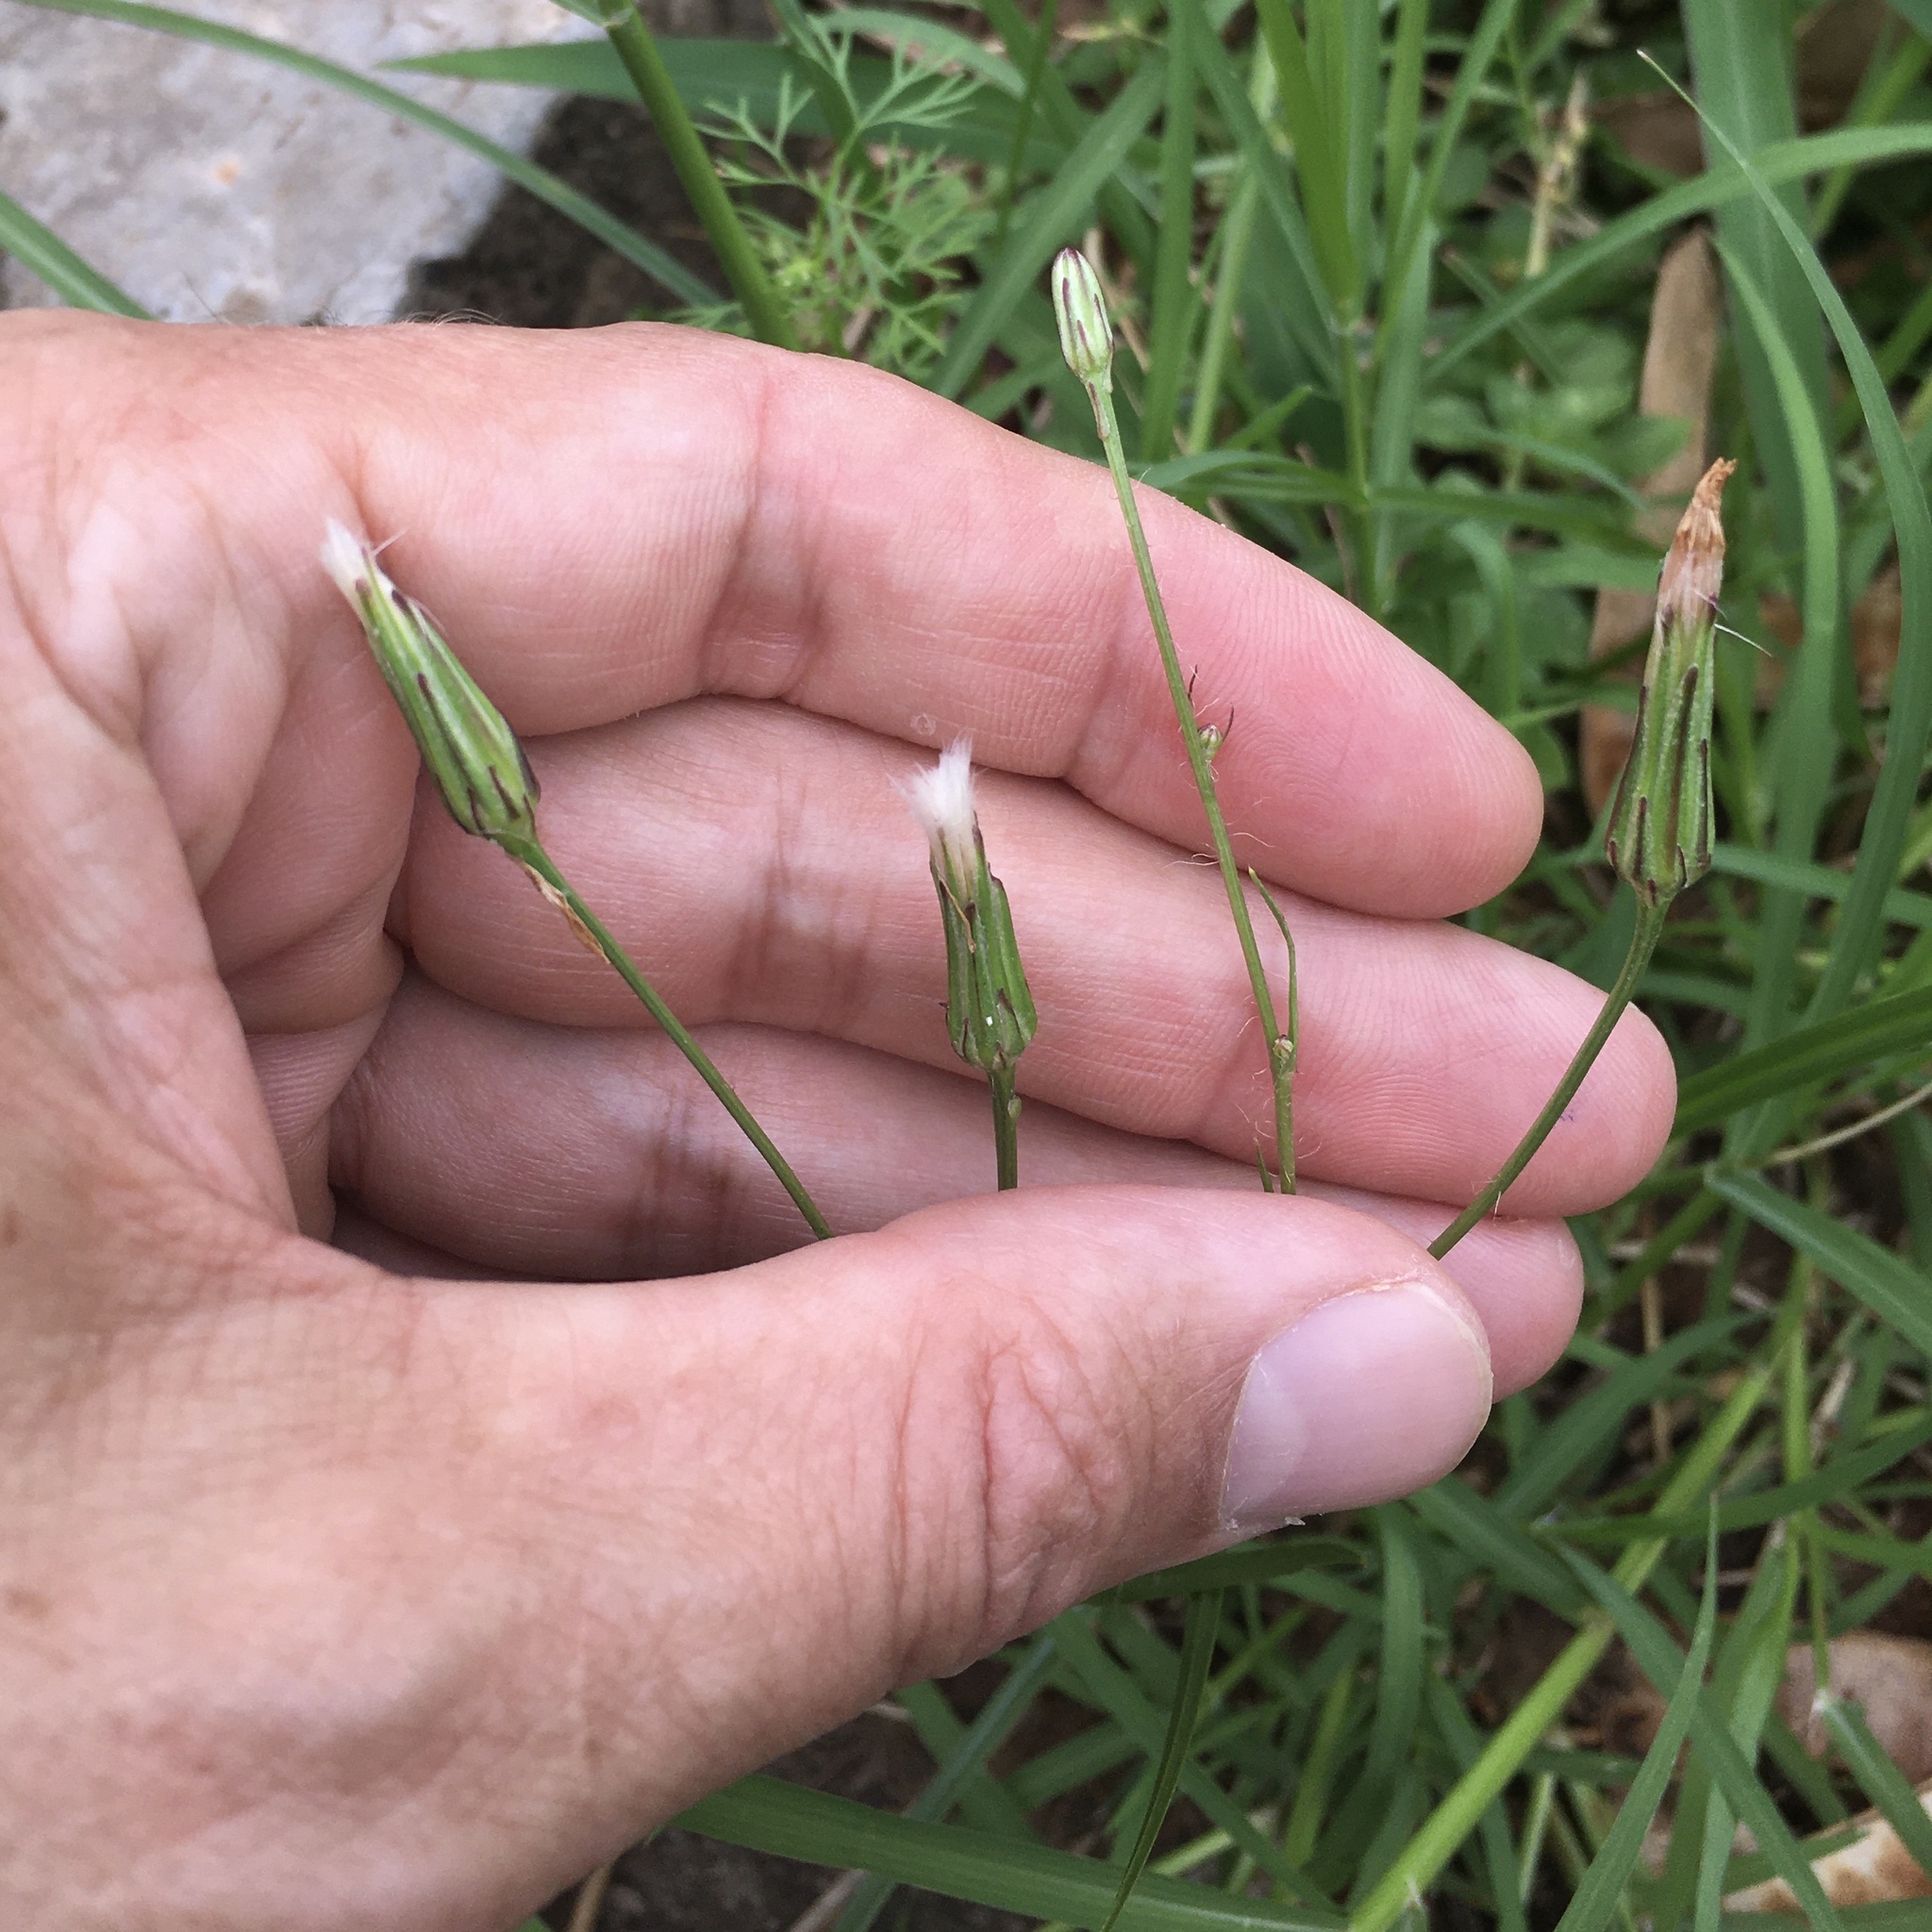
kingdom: Plantae
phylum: Tracheophyta
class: Magnoliopsida
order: Asterales
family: Asteraceae
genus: Hypochaeris
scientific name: Hypochaeris albiflora
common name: White flatweed
